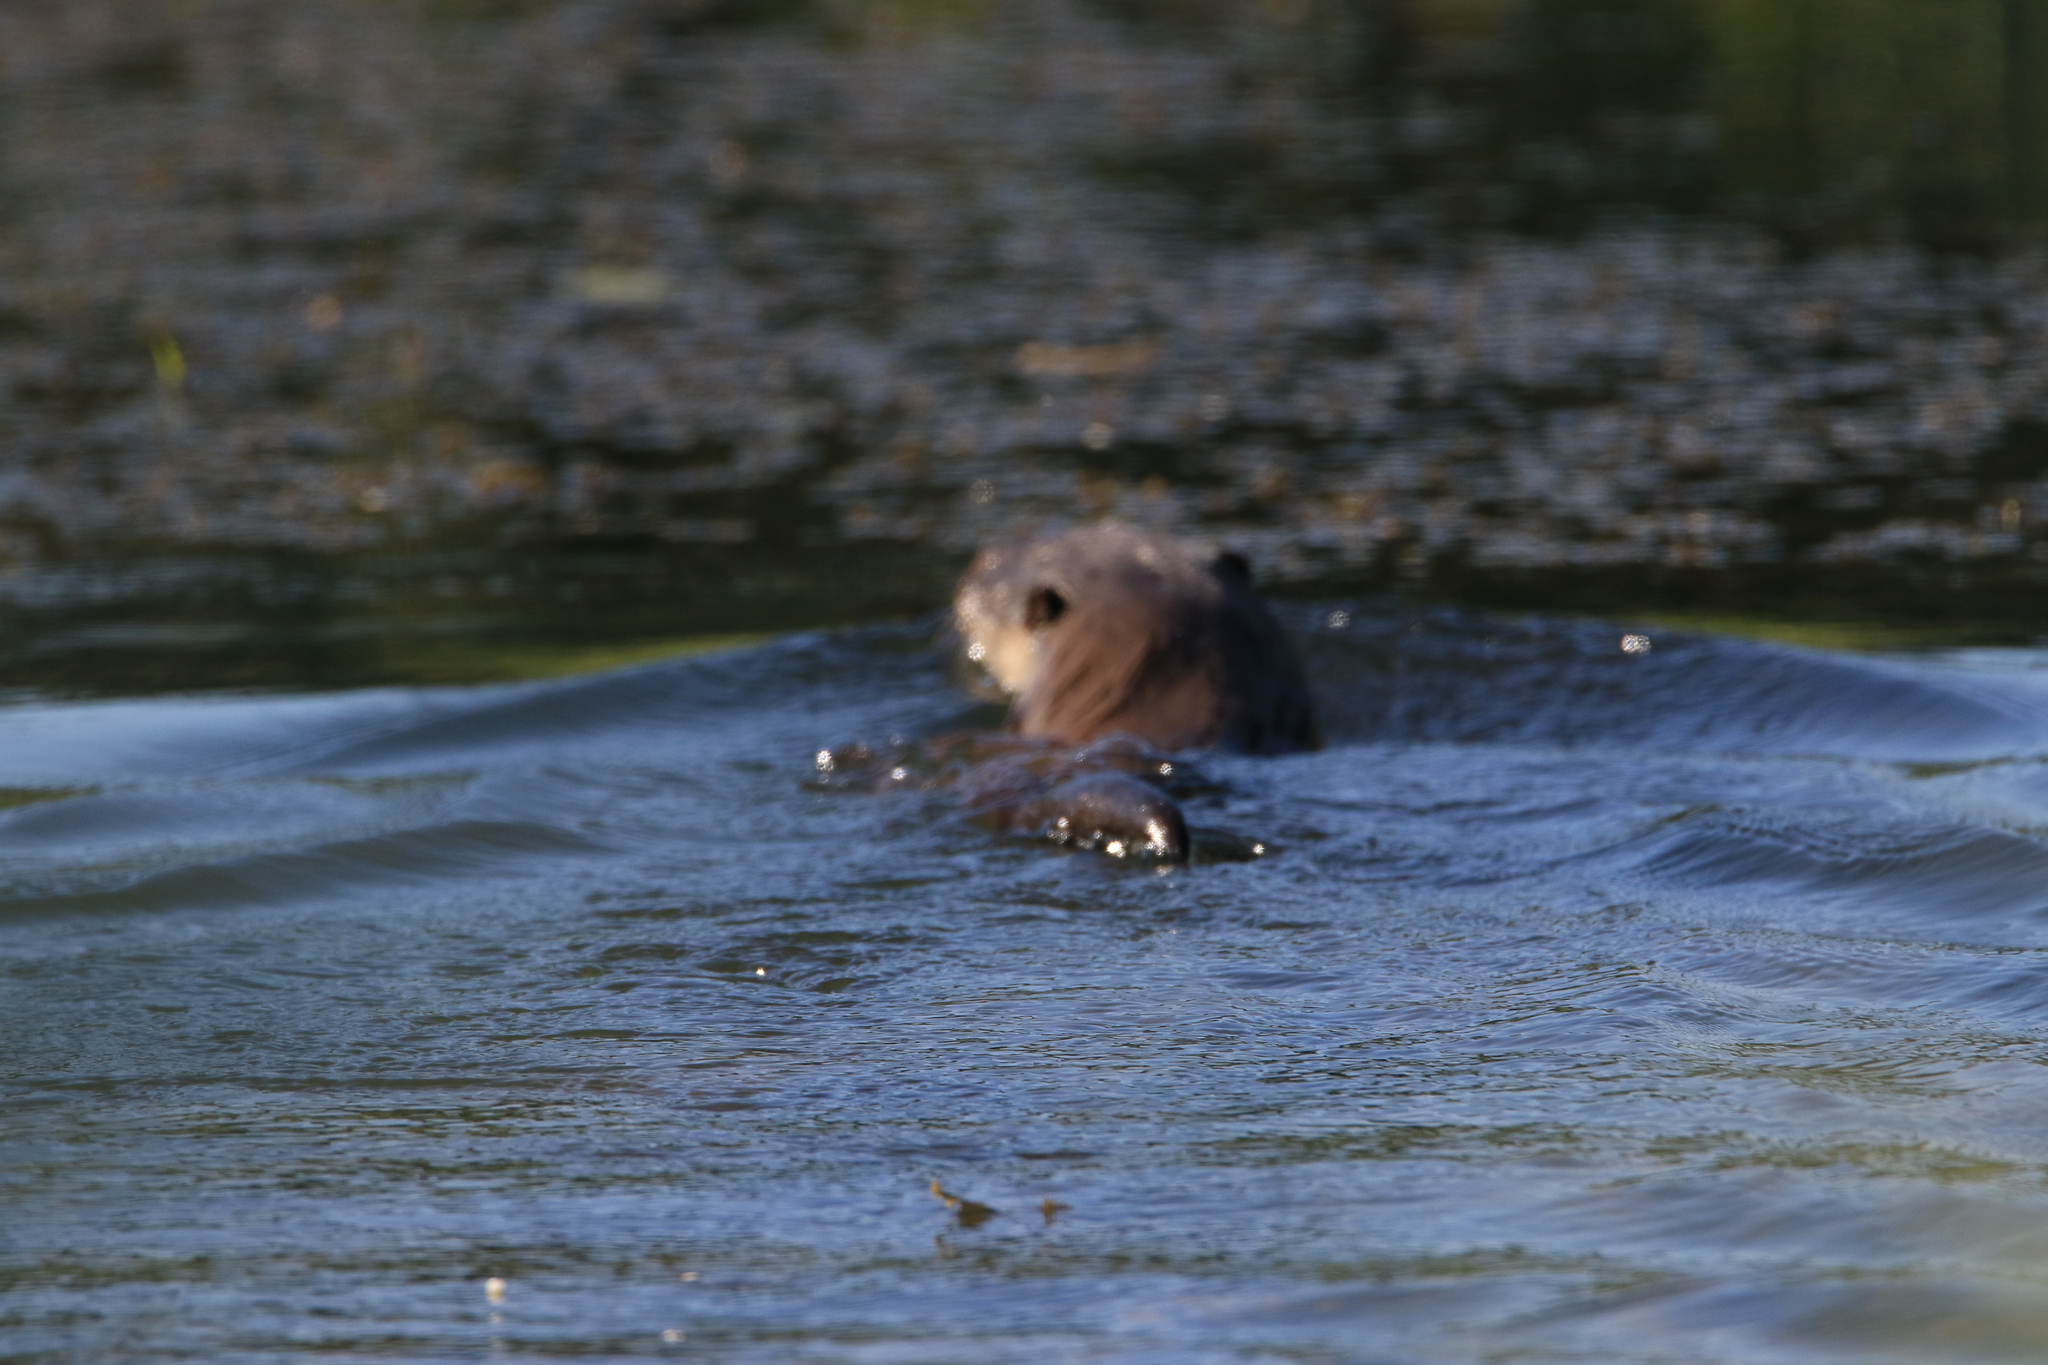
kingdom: Animalia
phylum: Chordata
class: Mammalia
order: Carnivora
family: Mustelidae
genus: Lutra
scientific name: Lutra lutra
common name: European otter
